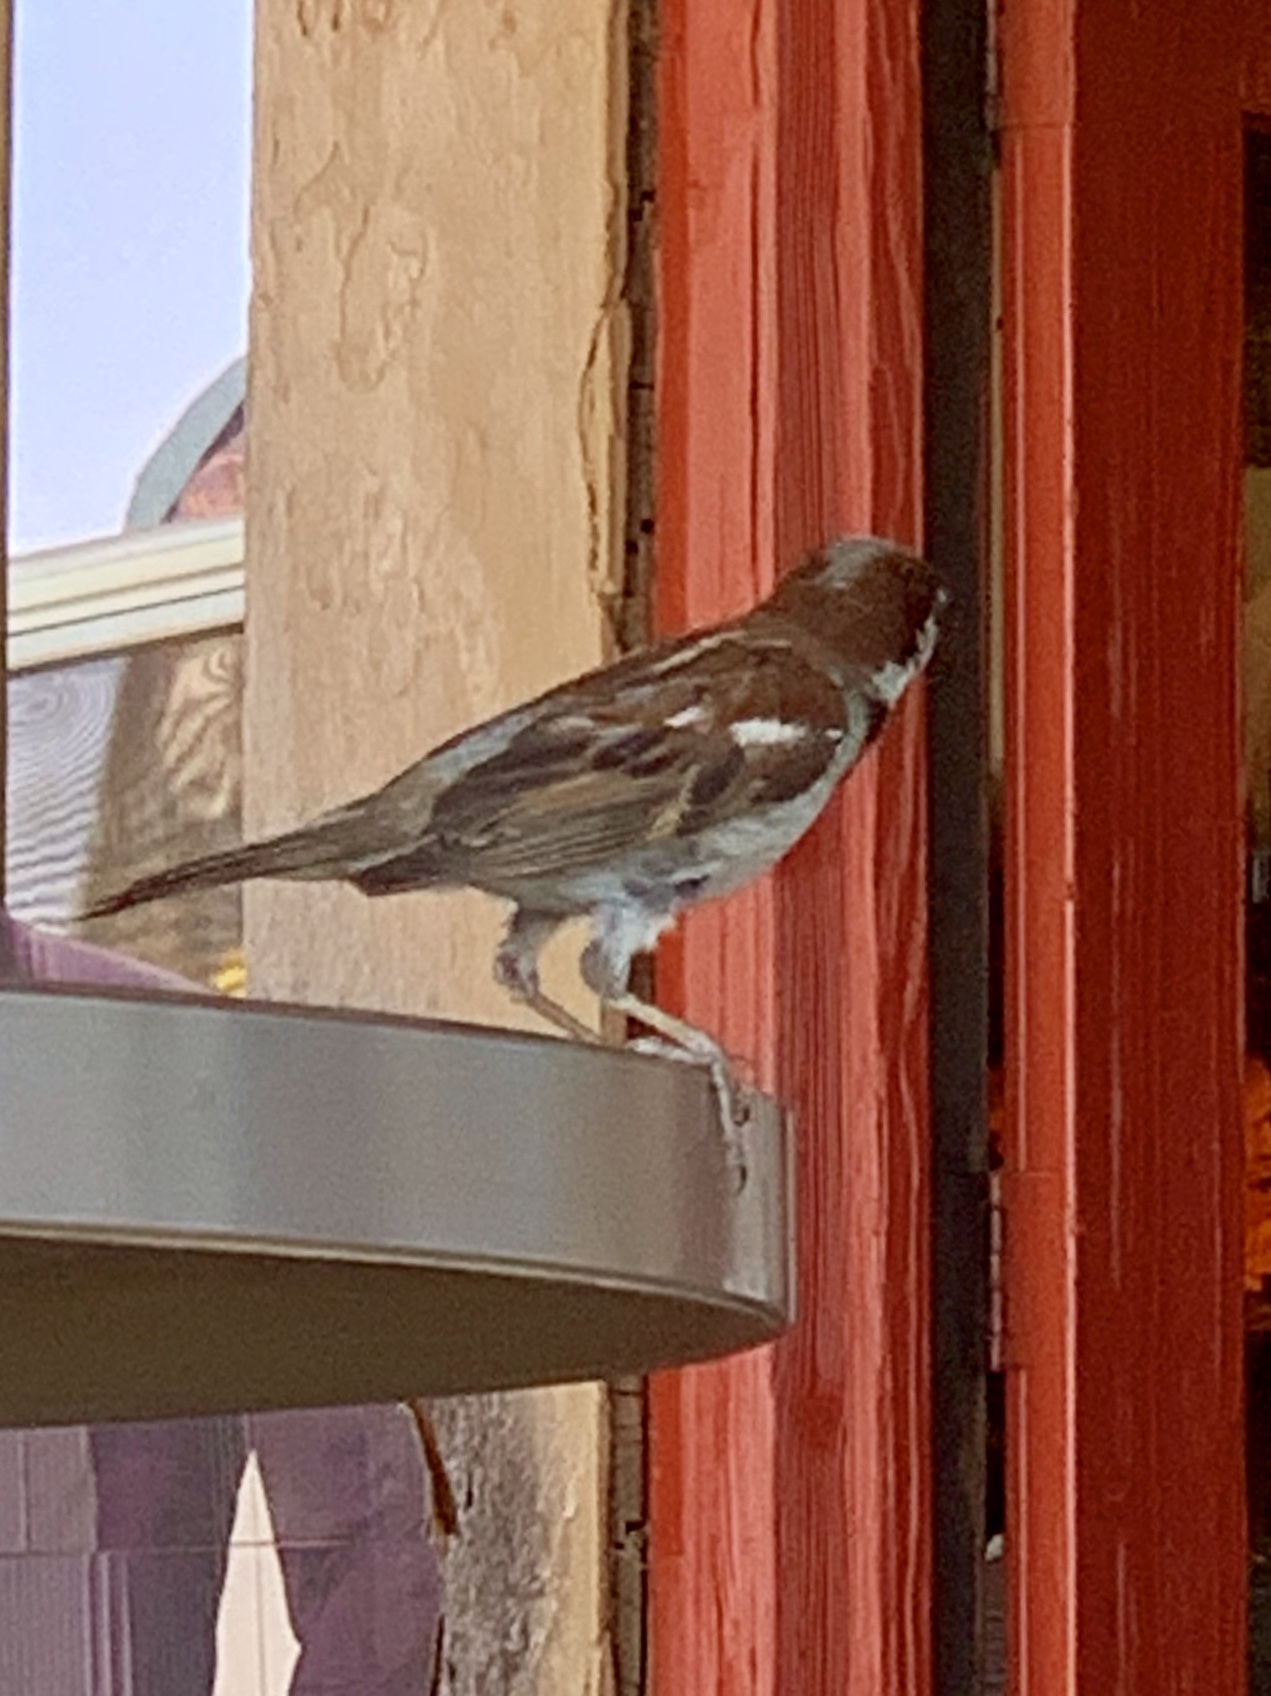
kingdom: Animalia
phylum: Chordata
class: Aves
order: Passeriformes
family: Passeridae
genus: Passer
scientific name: Passer domesticus
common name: House sparrow
